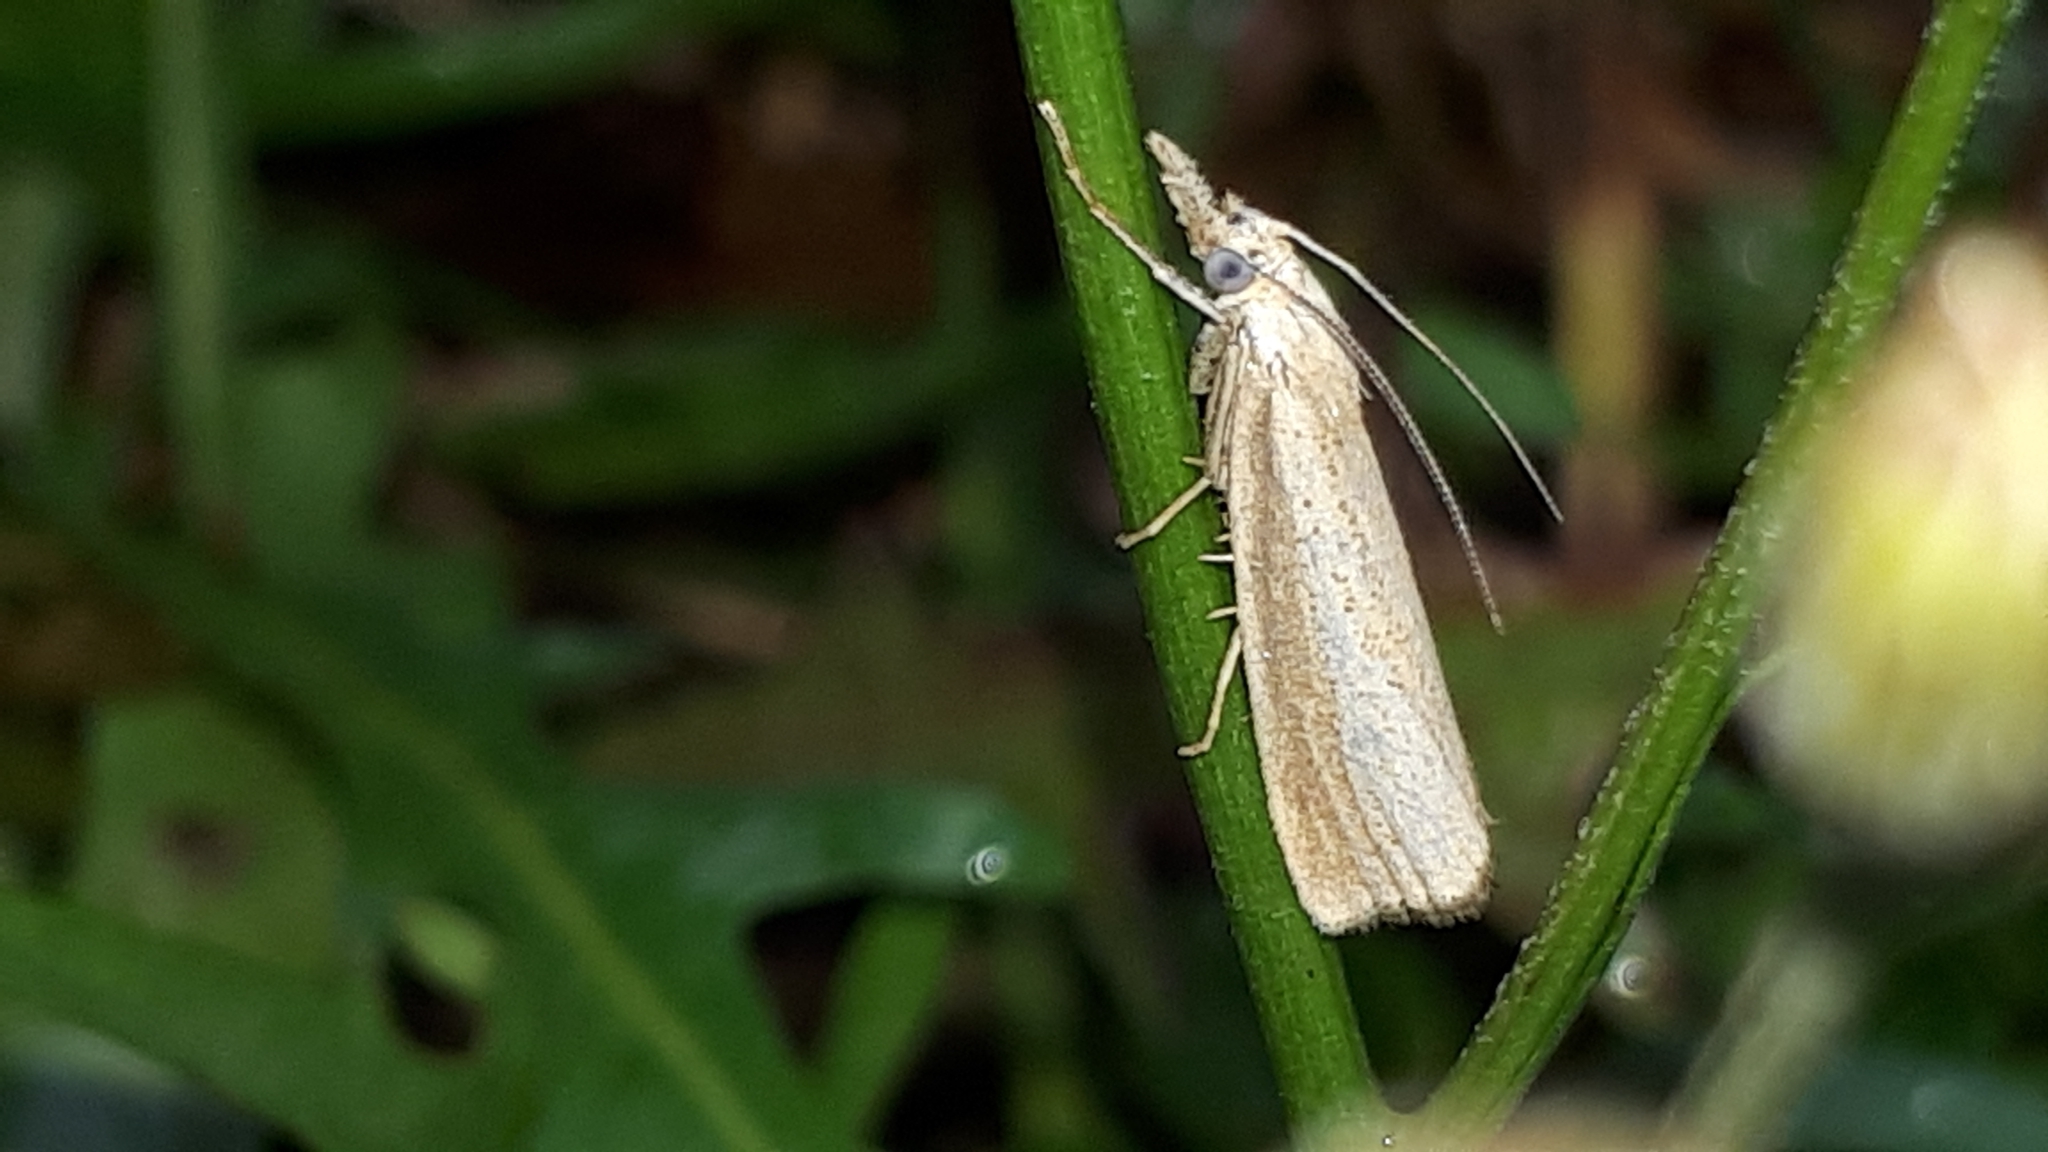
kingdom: Animalia
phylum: Arthropoda
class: Insecta
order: Lepidoptera
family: Crambidae
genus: Agriphila
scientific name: Agriphila straminella
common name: Straw grass-veneer
